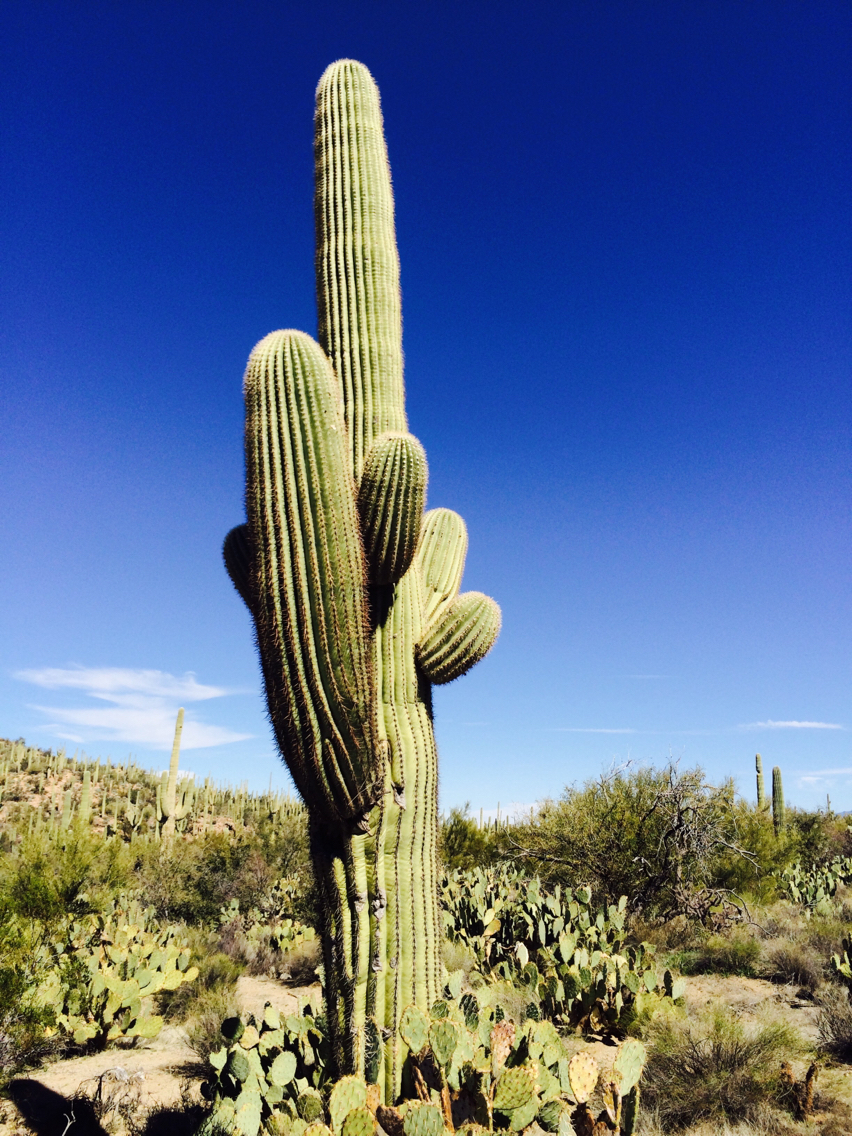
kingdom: Plantae
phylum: Tracheophyta
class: Magnoliopsida
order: Caryophyllales
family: Cactaceae
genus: Carnegiea
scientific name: Carnegiea gigantea
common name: Saguaro
